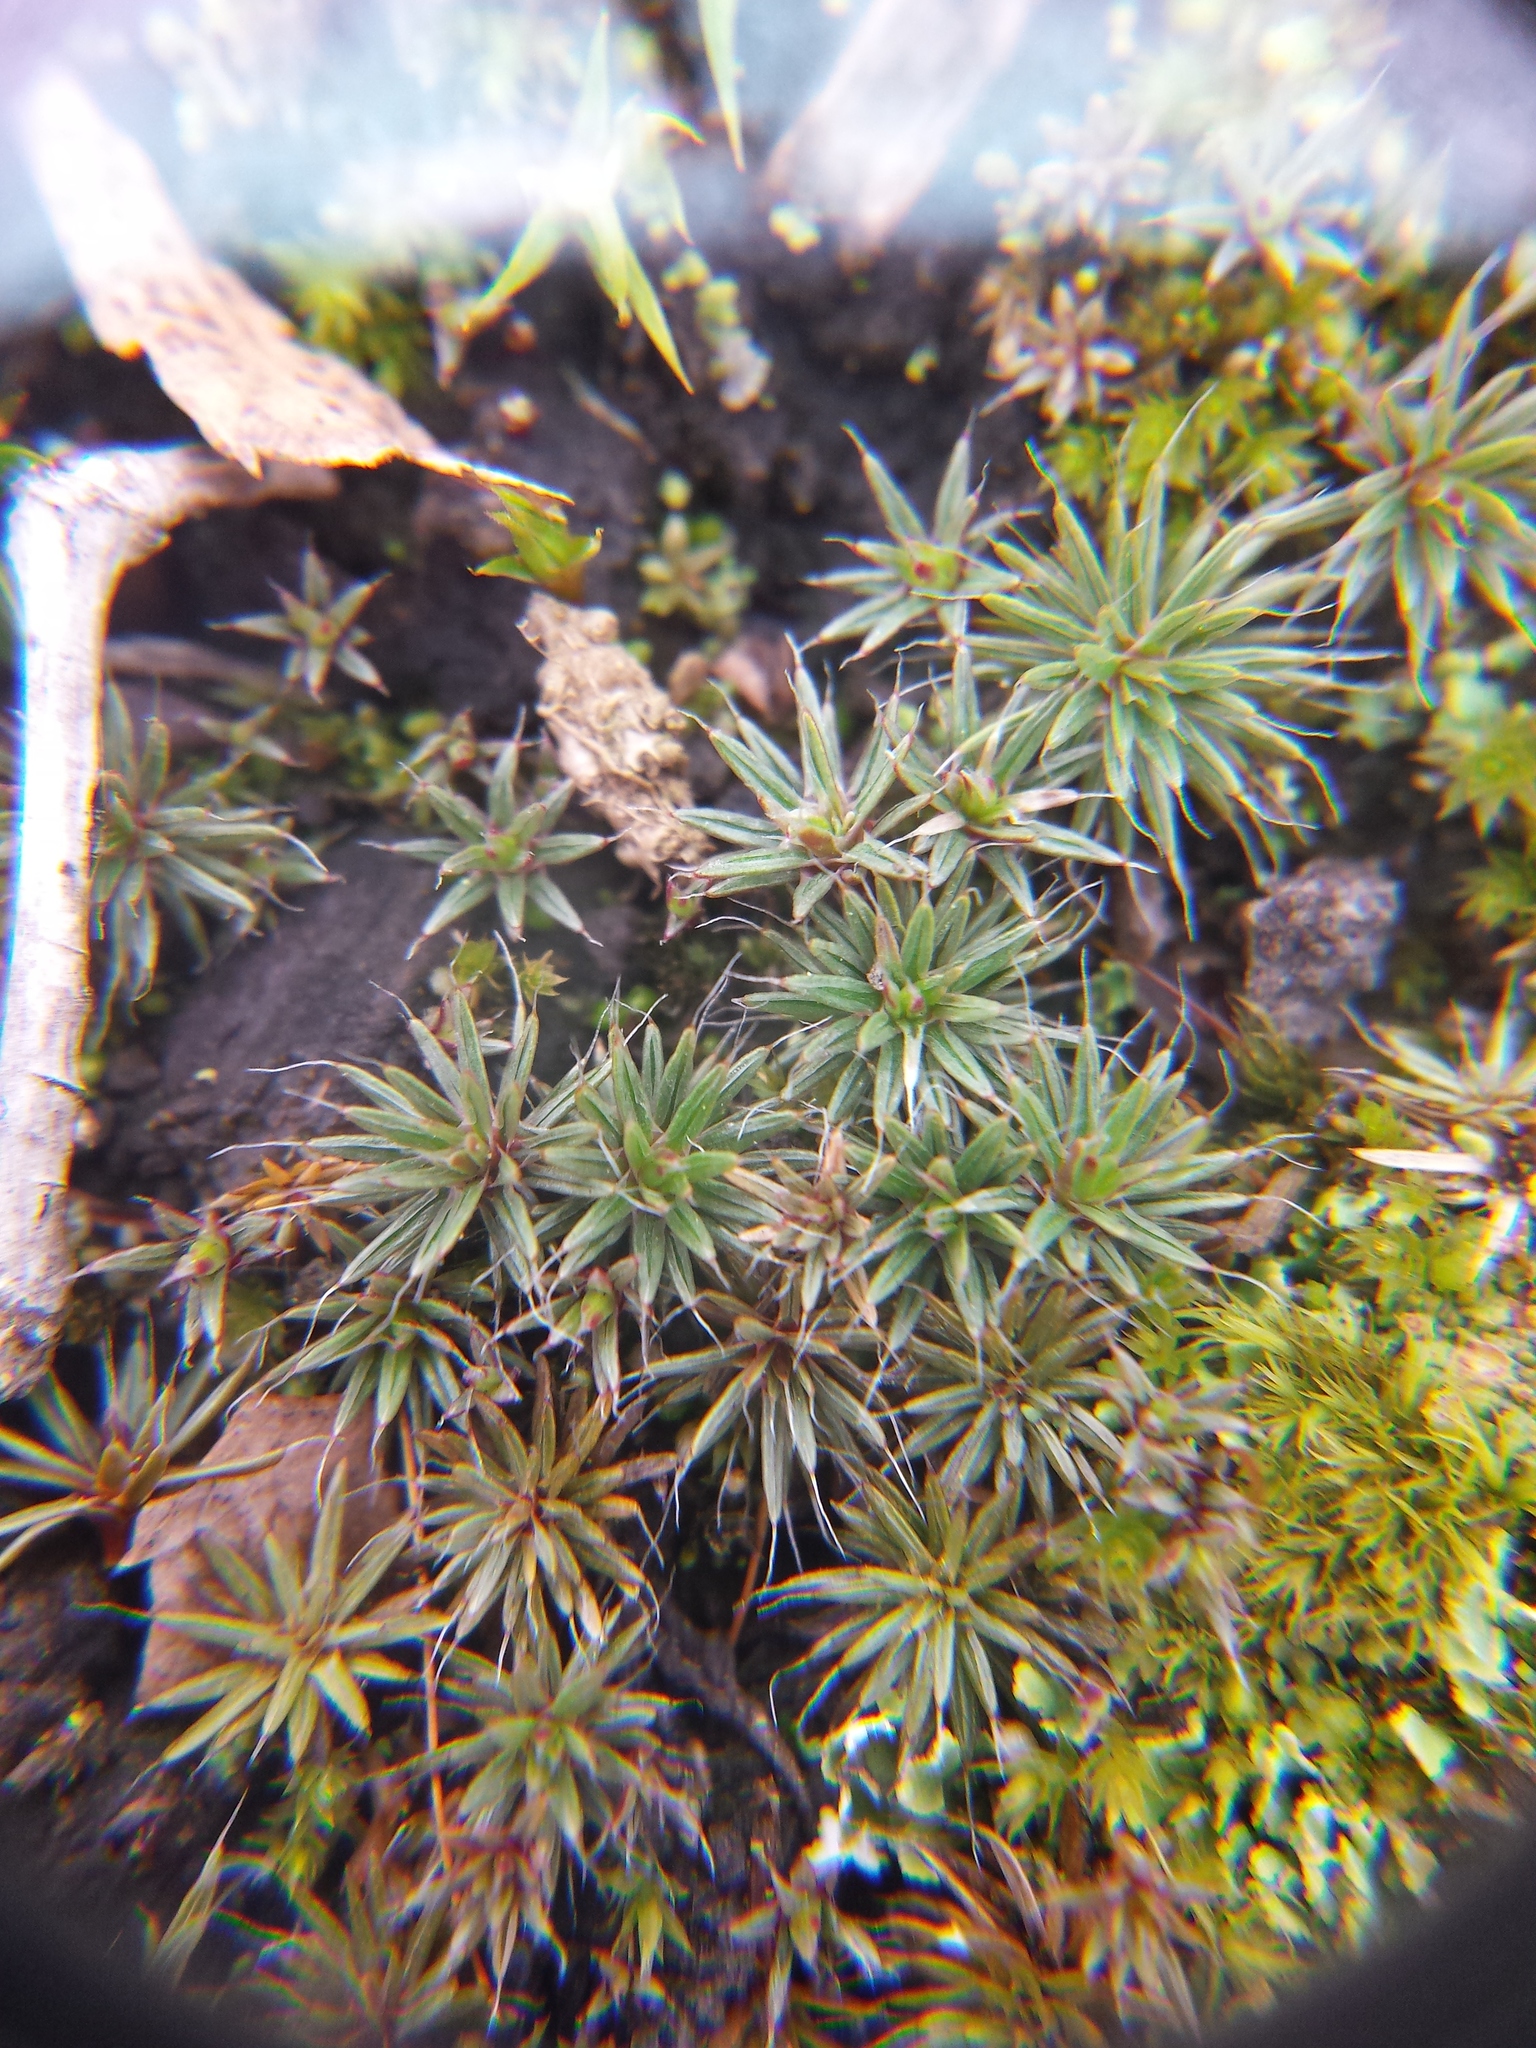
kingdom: Plantae
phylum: Bryophyta
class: Polytrichopsida
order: Polytrichales
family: Polytrichaceae
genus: Polytrichum
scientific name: Polytrichum piliferum
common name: Bristly haircap
